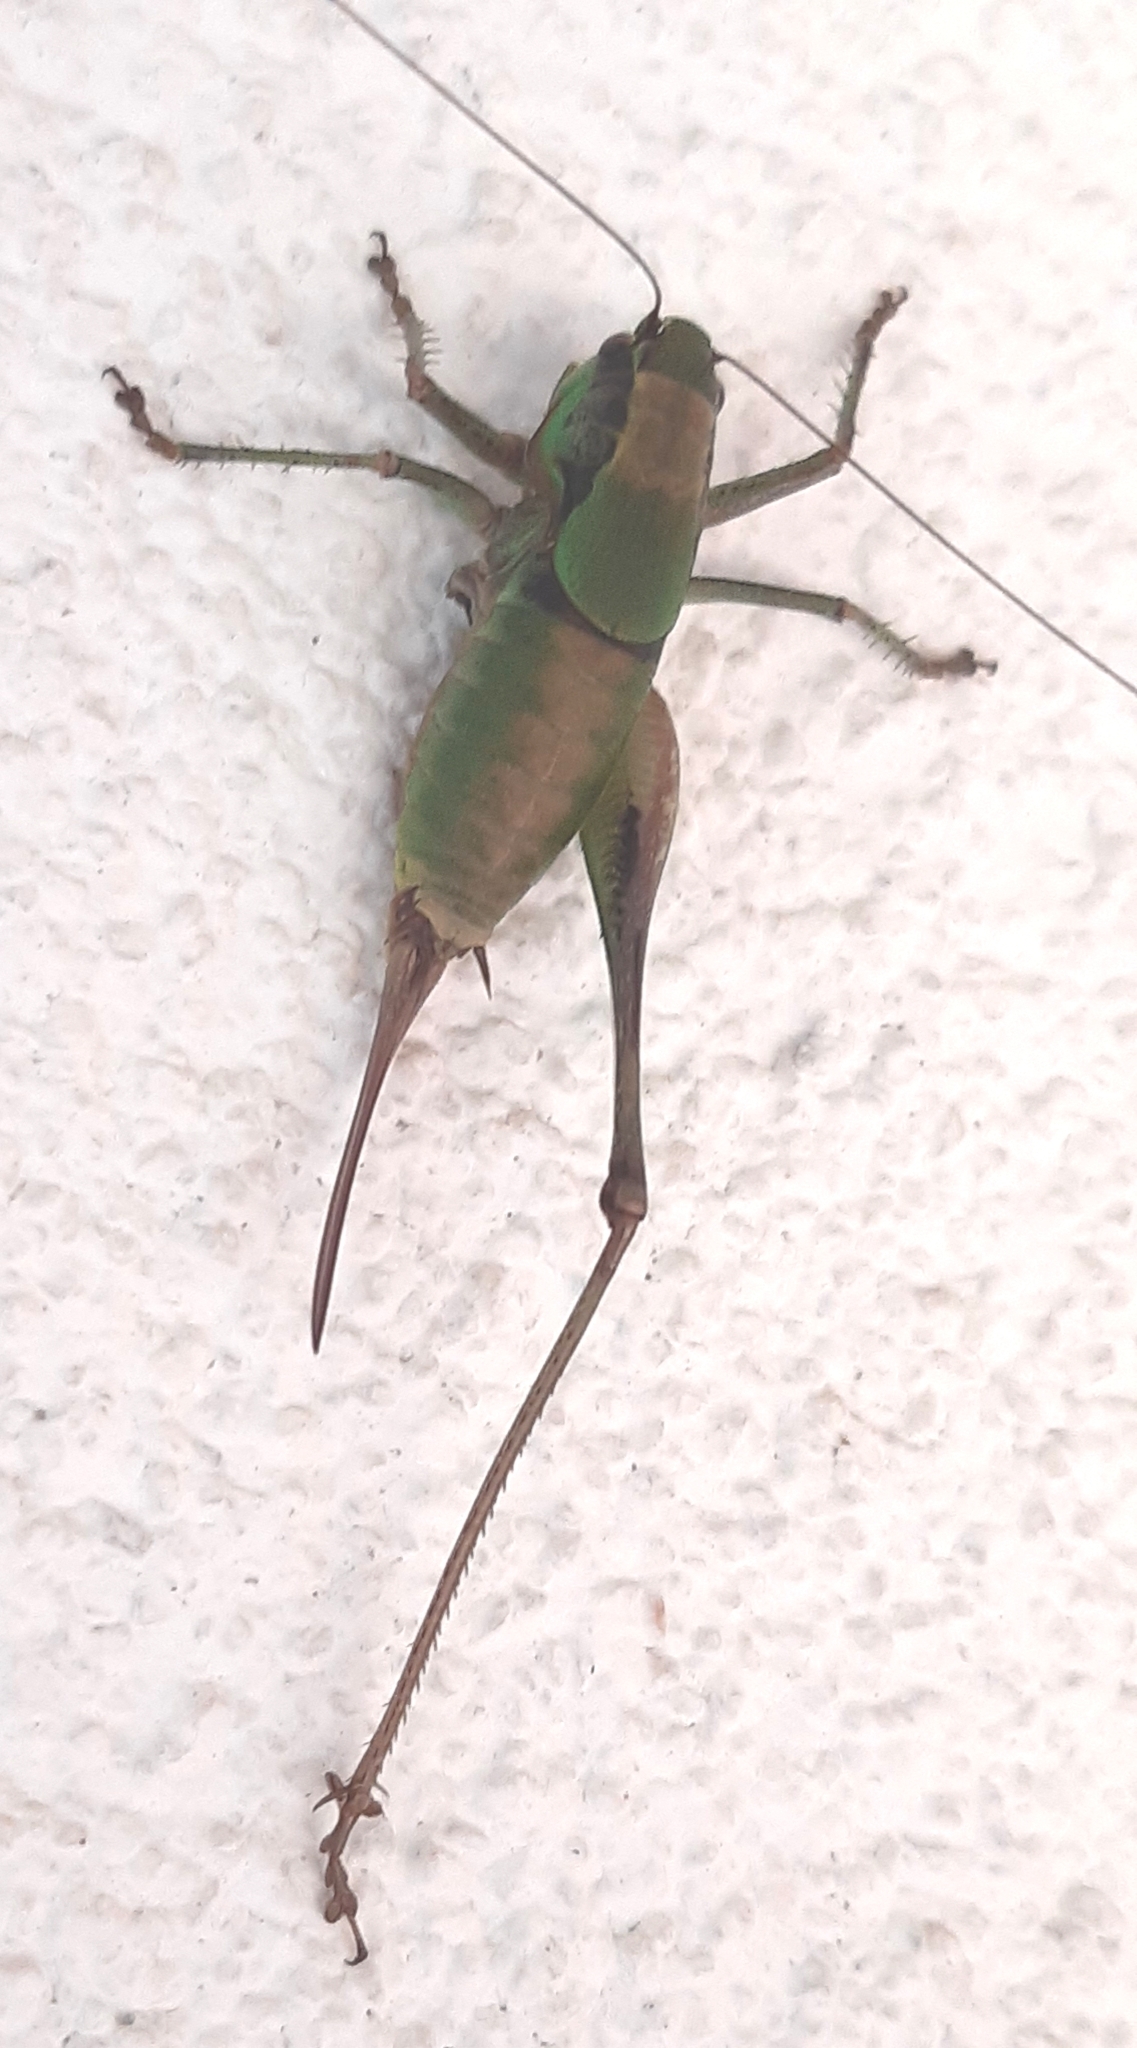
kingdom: Animalia
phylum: Arthropoda
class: Insecta
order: Orthoptera
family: Tettigoniidae
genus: Eupholidoptera
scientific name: Eupholidoptera schmidti
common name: Schmidt's marbled bush-cricket
